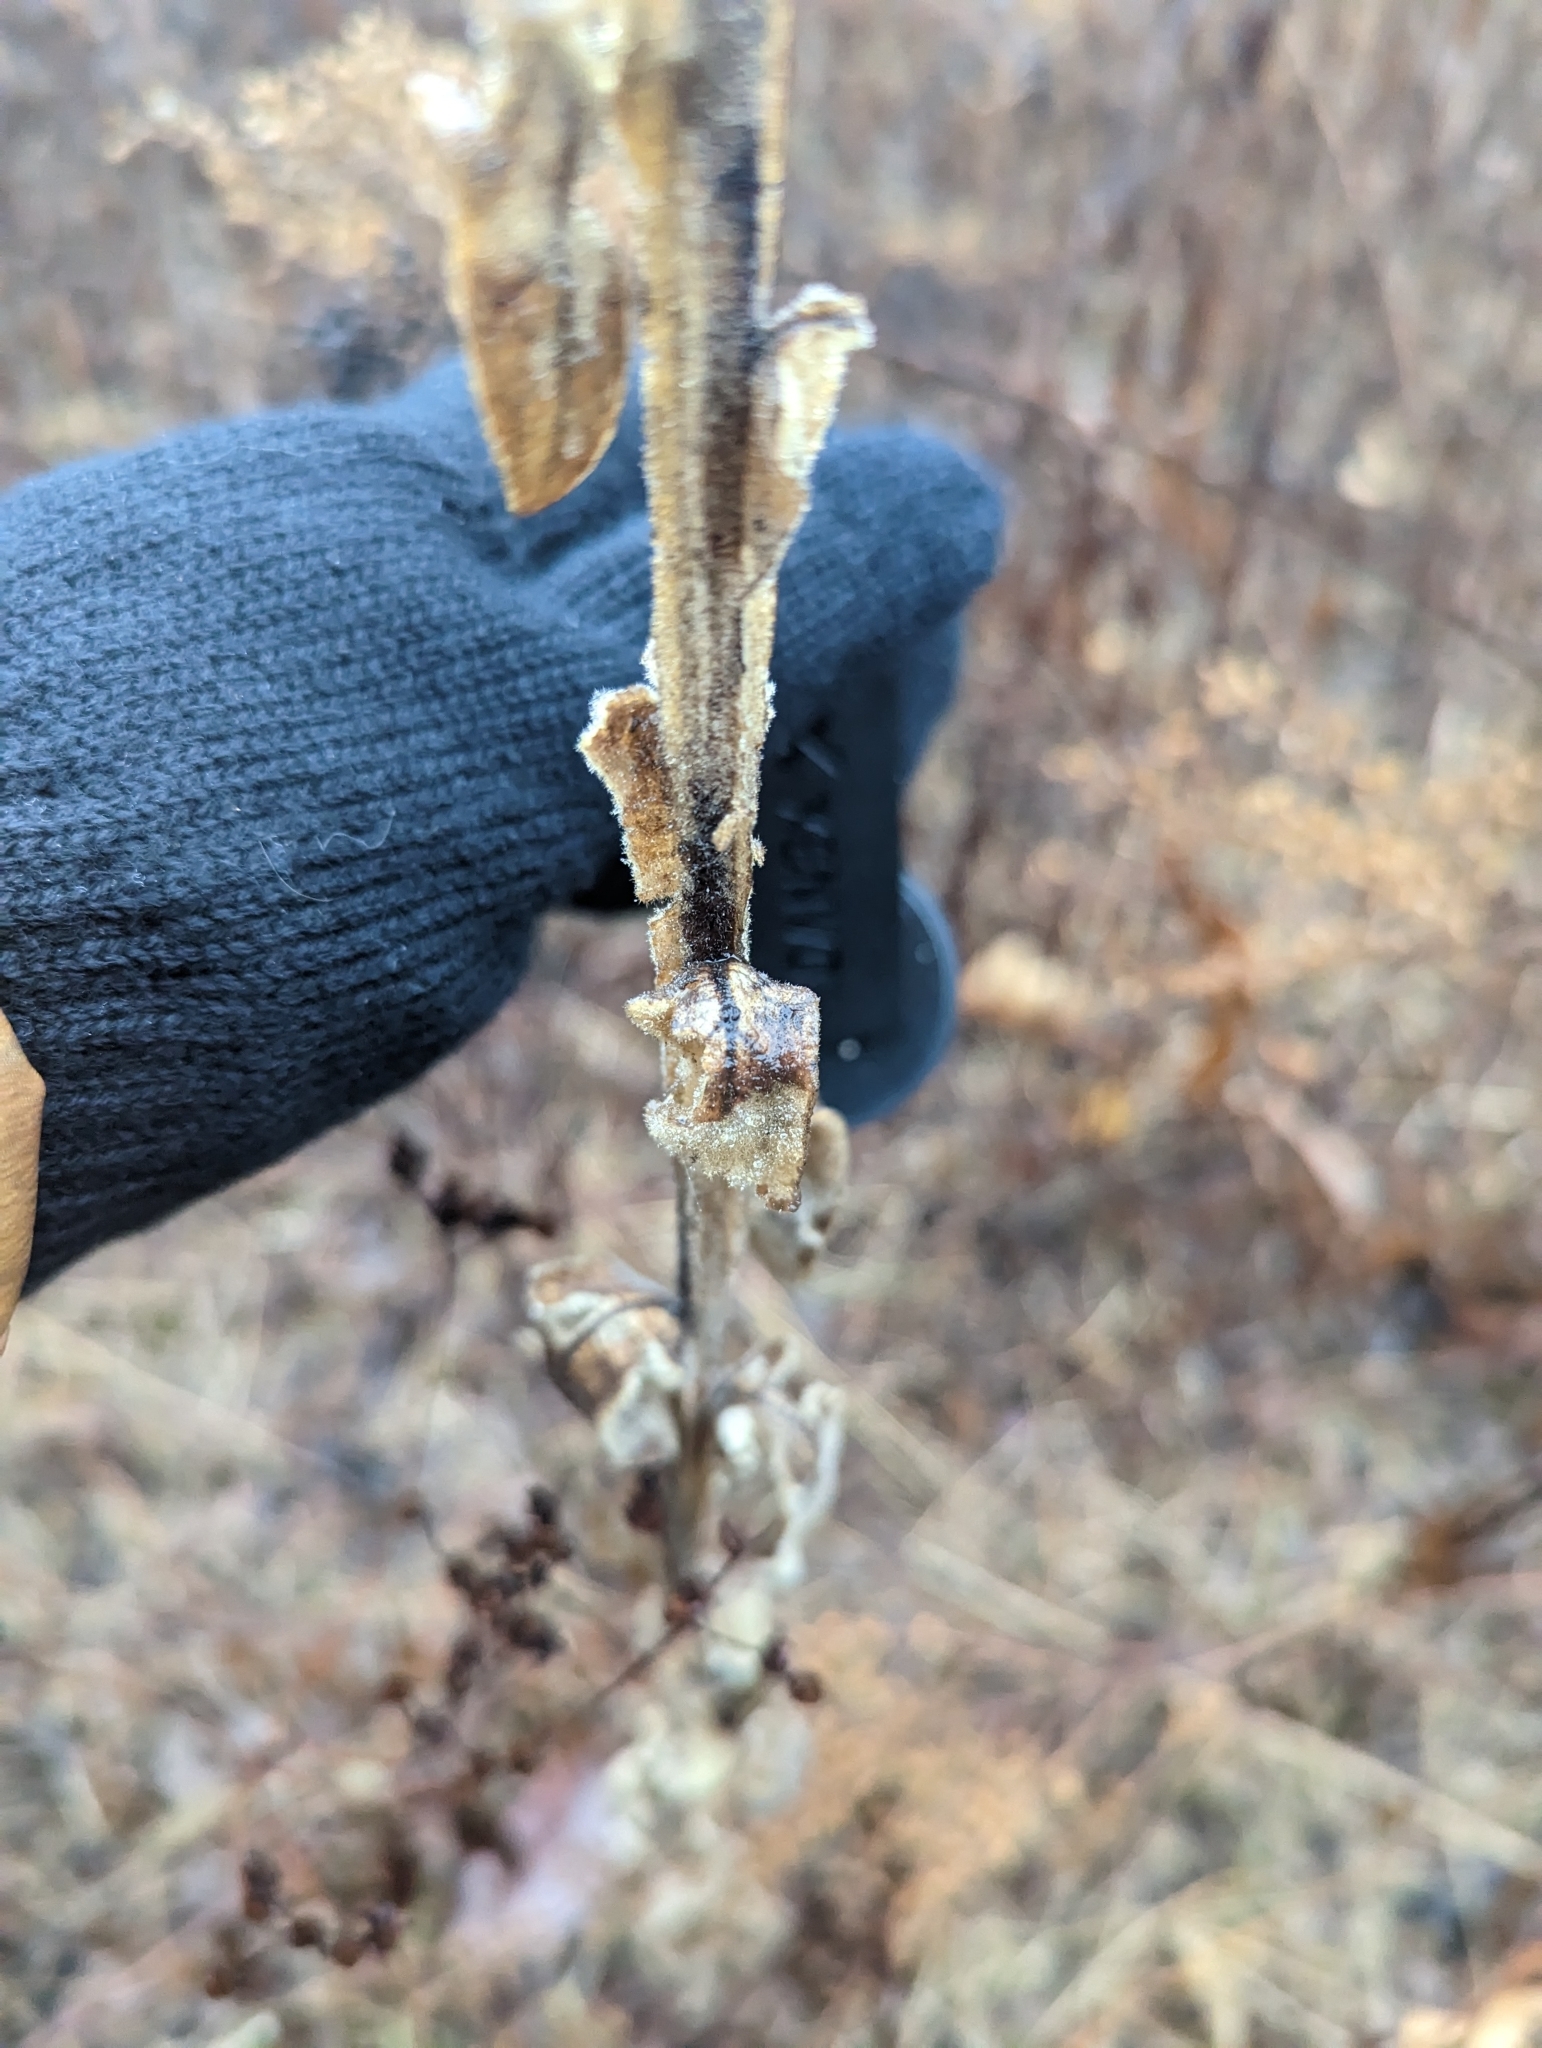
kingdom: Plantae
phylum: Tracheophyta
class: Magnoliopsida
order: Lamiales
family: Scrophulariaceae
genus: Verbascum
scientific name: Verbascum thapsus
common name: Common mullein
